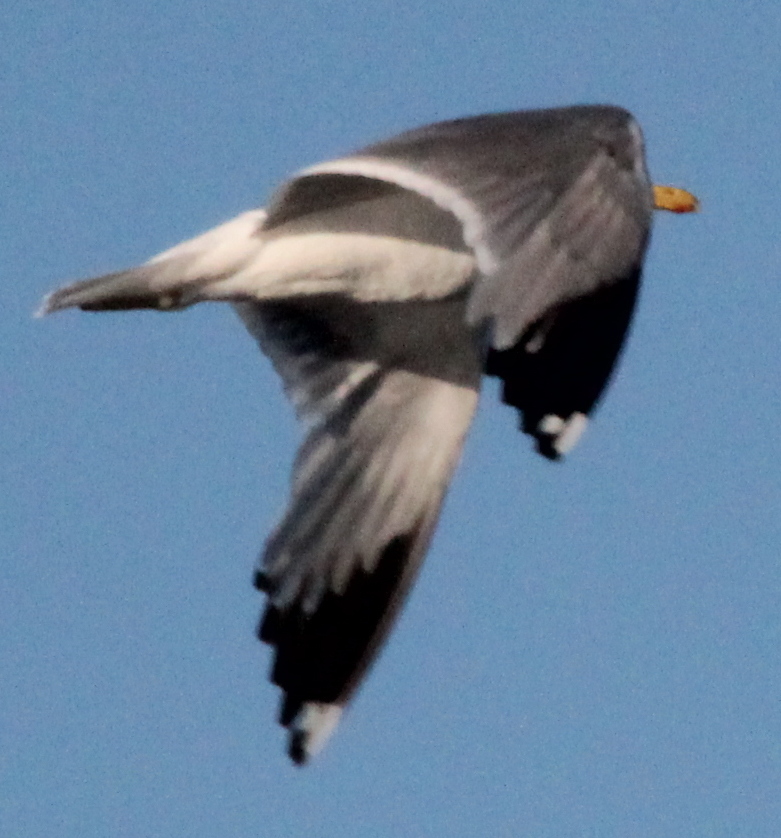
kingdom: Animalia
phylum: Chordata
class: Aves
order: Charadriiformes
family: Laridae
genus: Larus
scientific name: Larus californicus
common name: California gull
